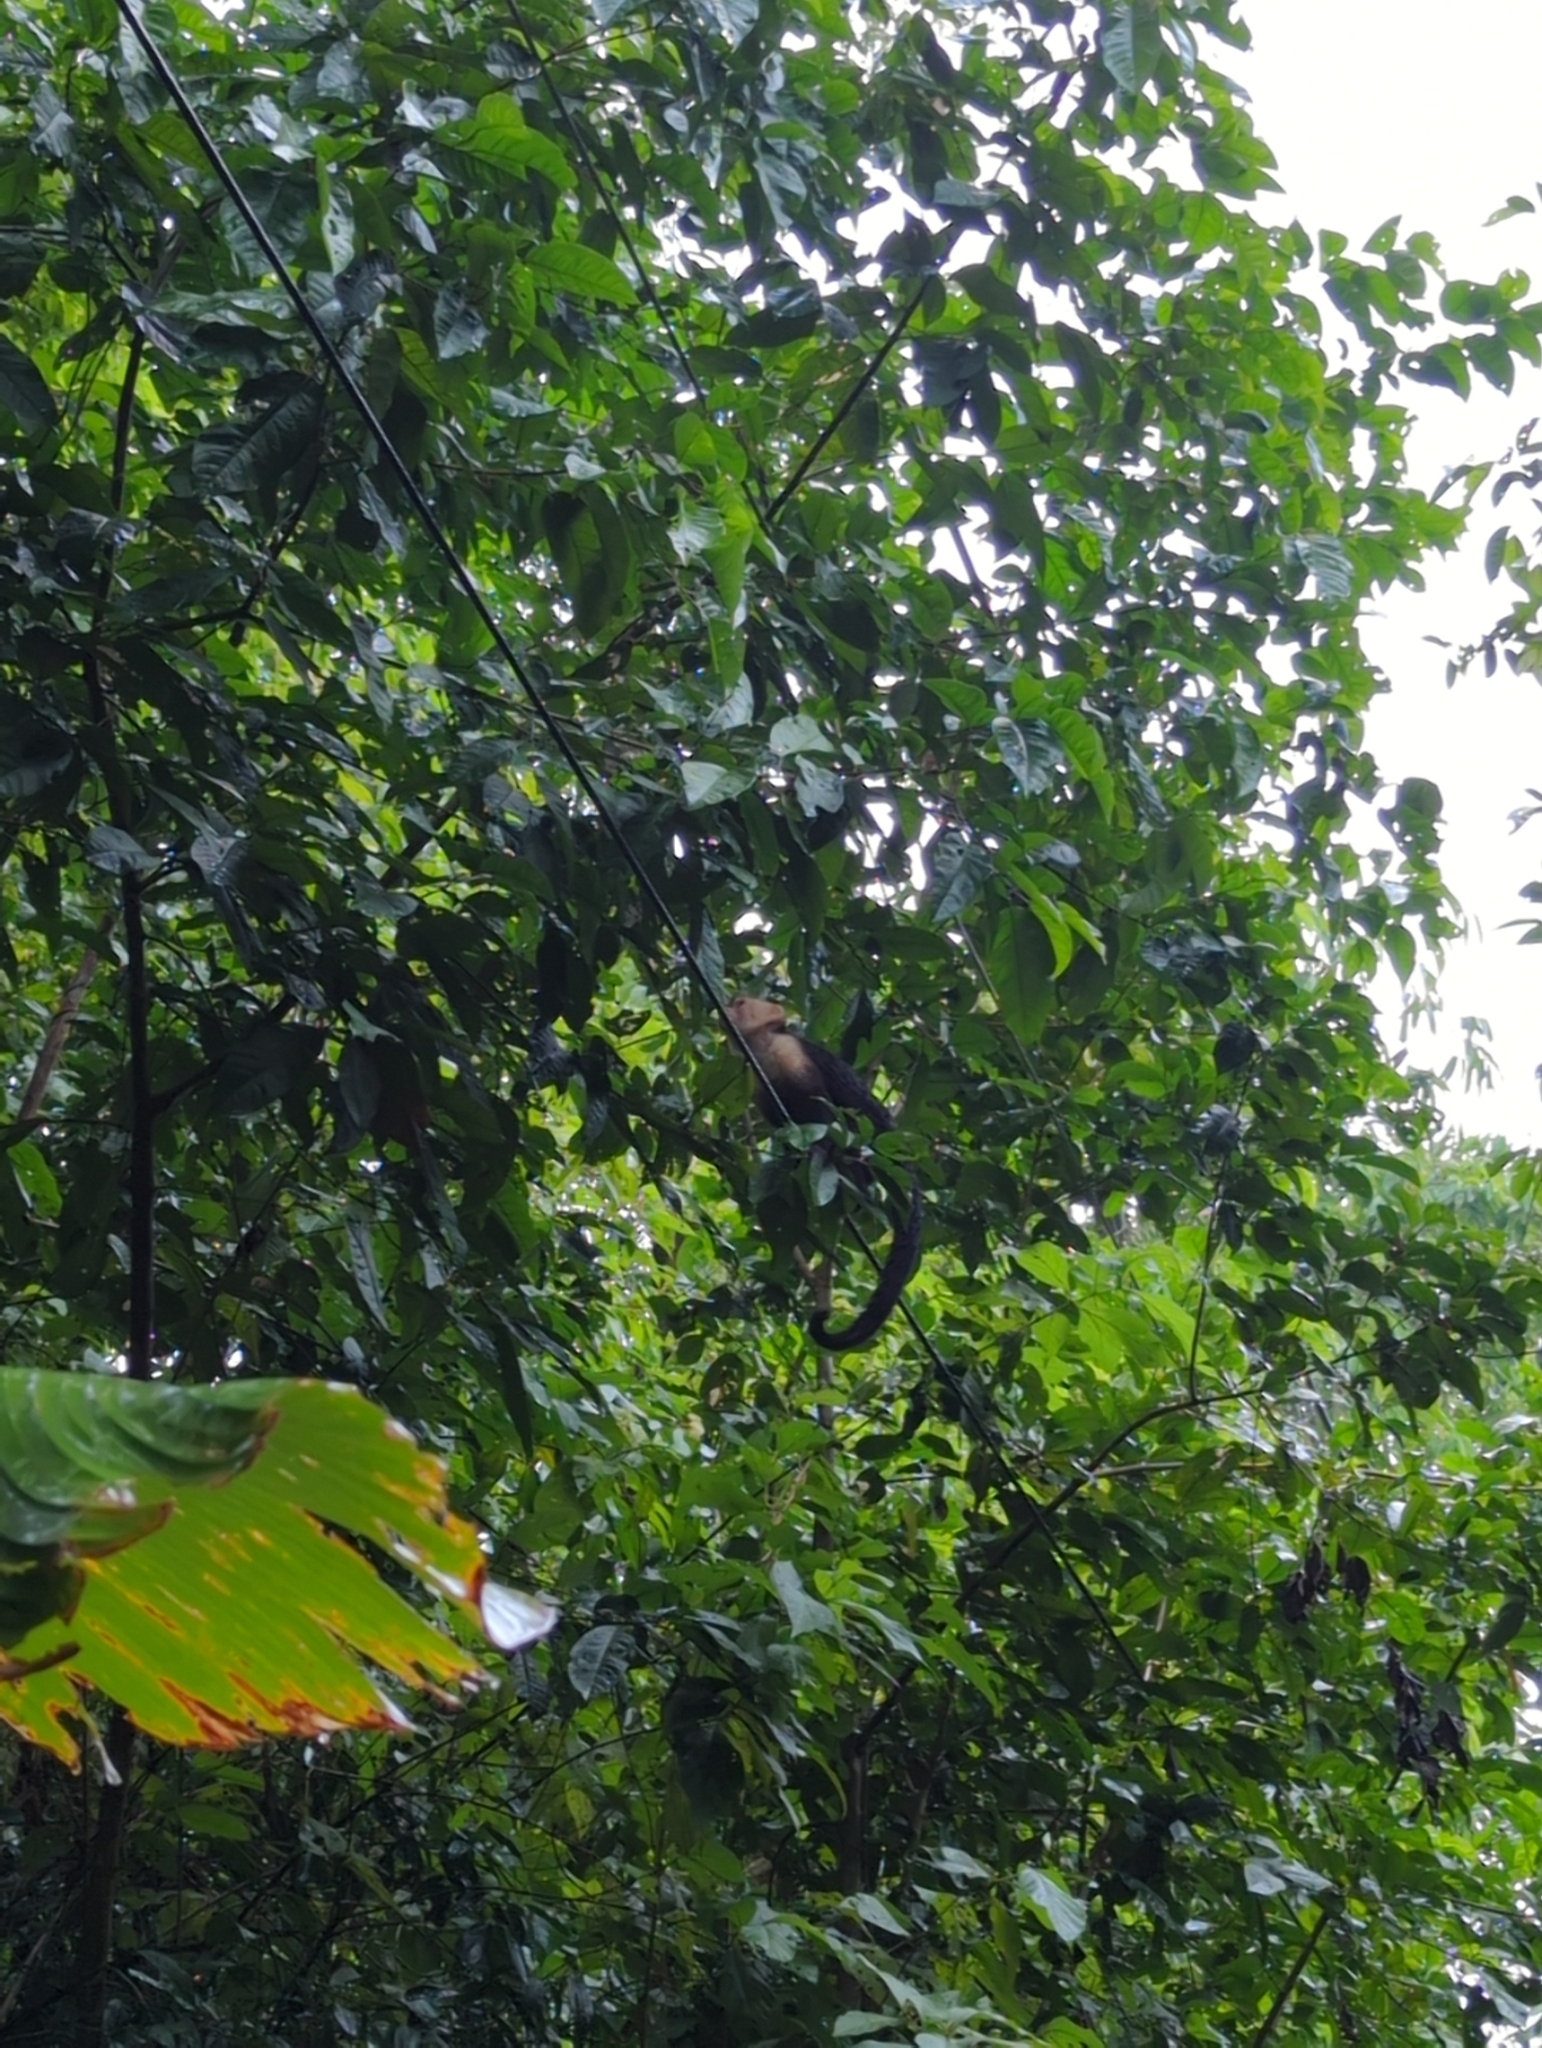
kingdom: Animalia
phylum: Chordata
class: Mammalia
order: Primates
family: Cebidae
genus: Cebus
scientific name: Cebus imitator
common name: Panamanian white-faced capuchin
